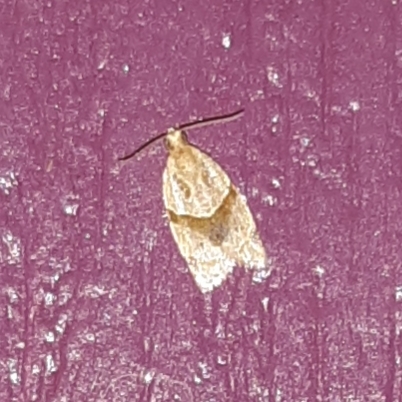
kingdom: Animalia
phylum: Arthropoda
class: Insecta
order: Lepidoptera
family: Tortricidae
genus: Clepsis
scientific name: Clepsis peritana
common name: Garden tortrix
